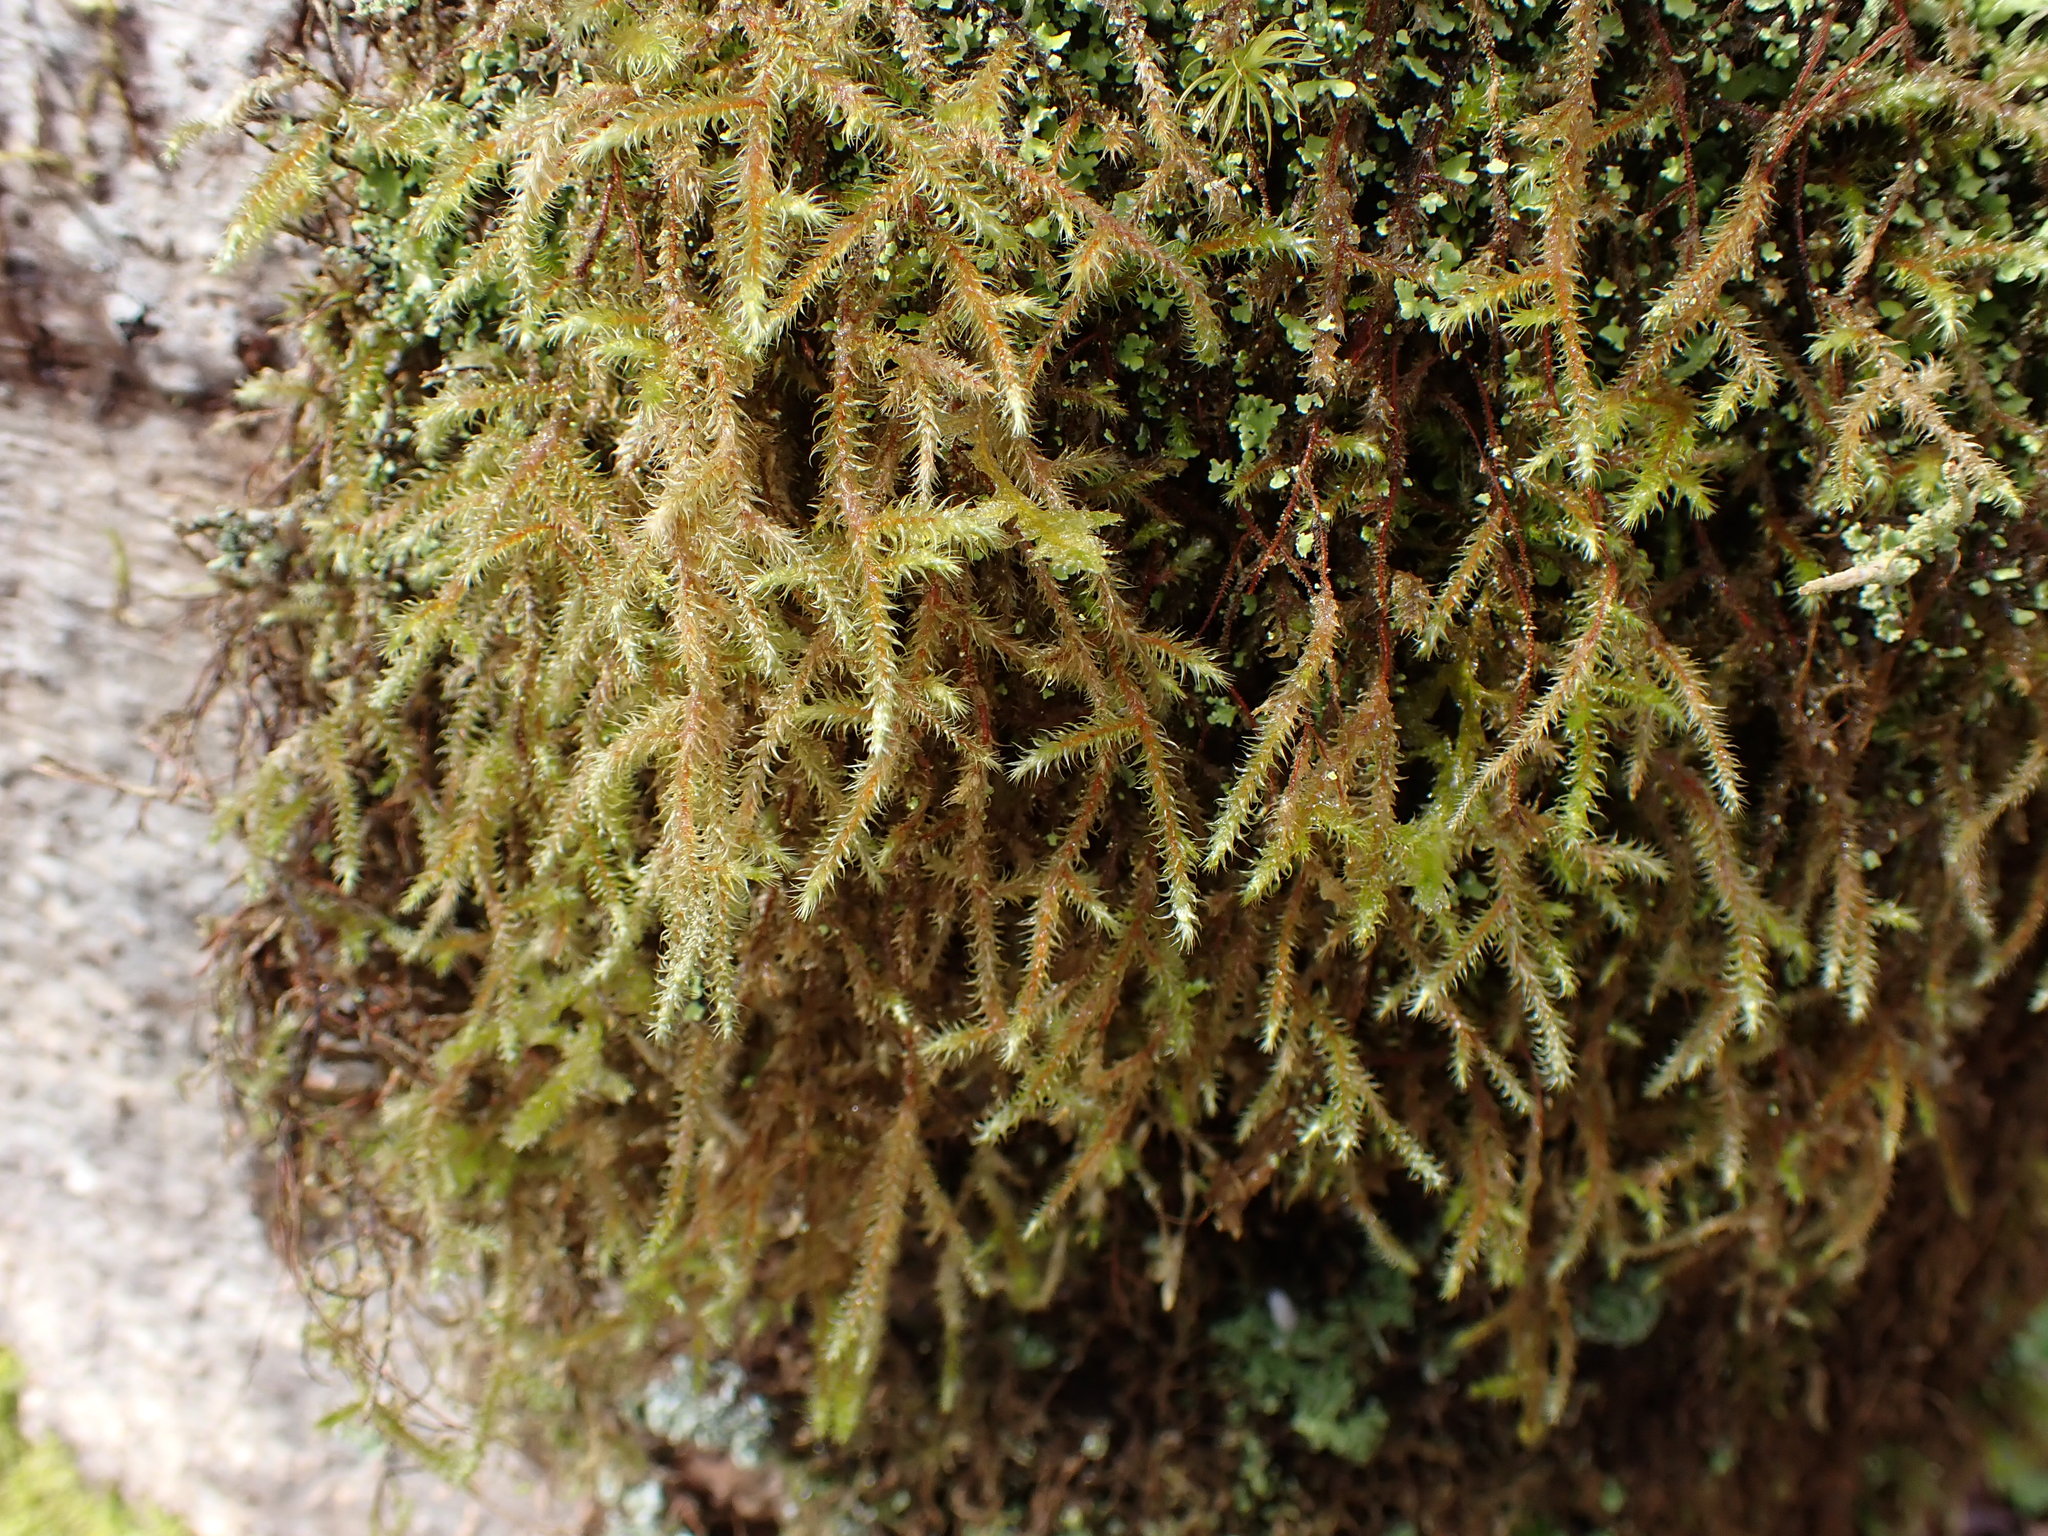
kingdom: Plantae
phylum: Bryophyta
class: Bryopsida
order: Hypnales
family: Hylocomiaceae
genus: Rhytidiadelphus
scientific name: Rhytidiadelphus loreus
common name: Lanky moss
